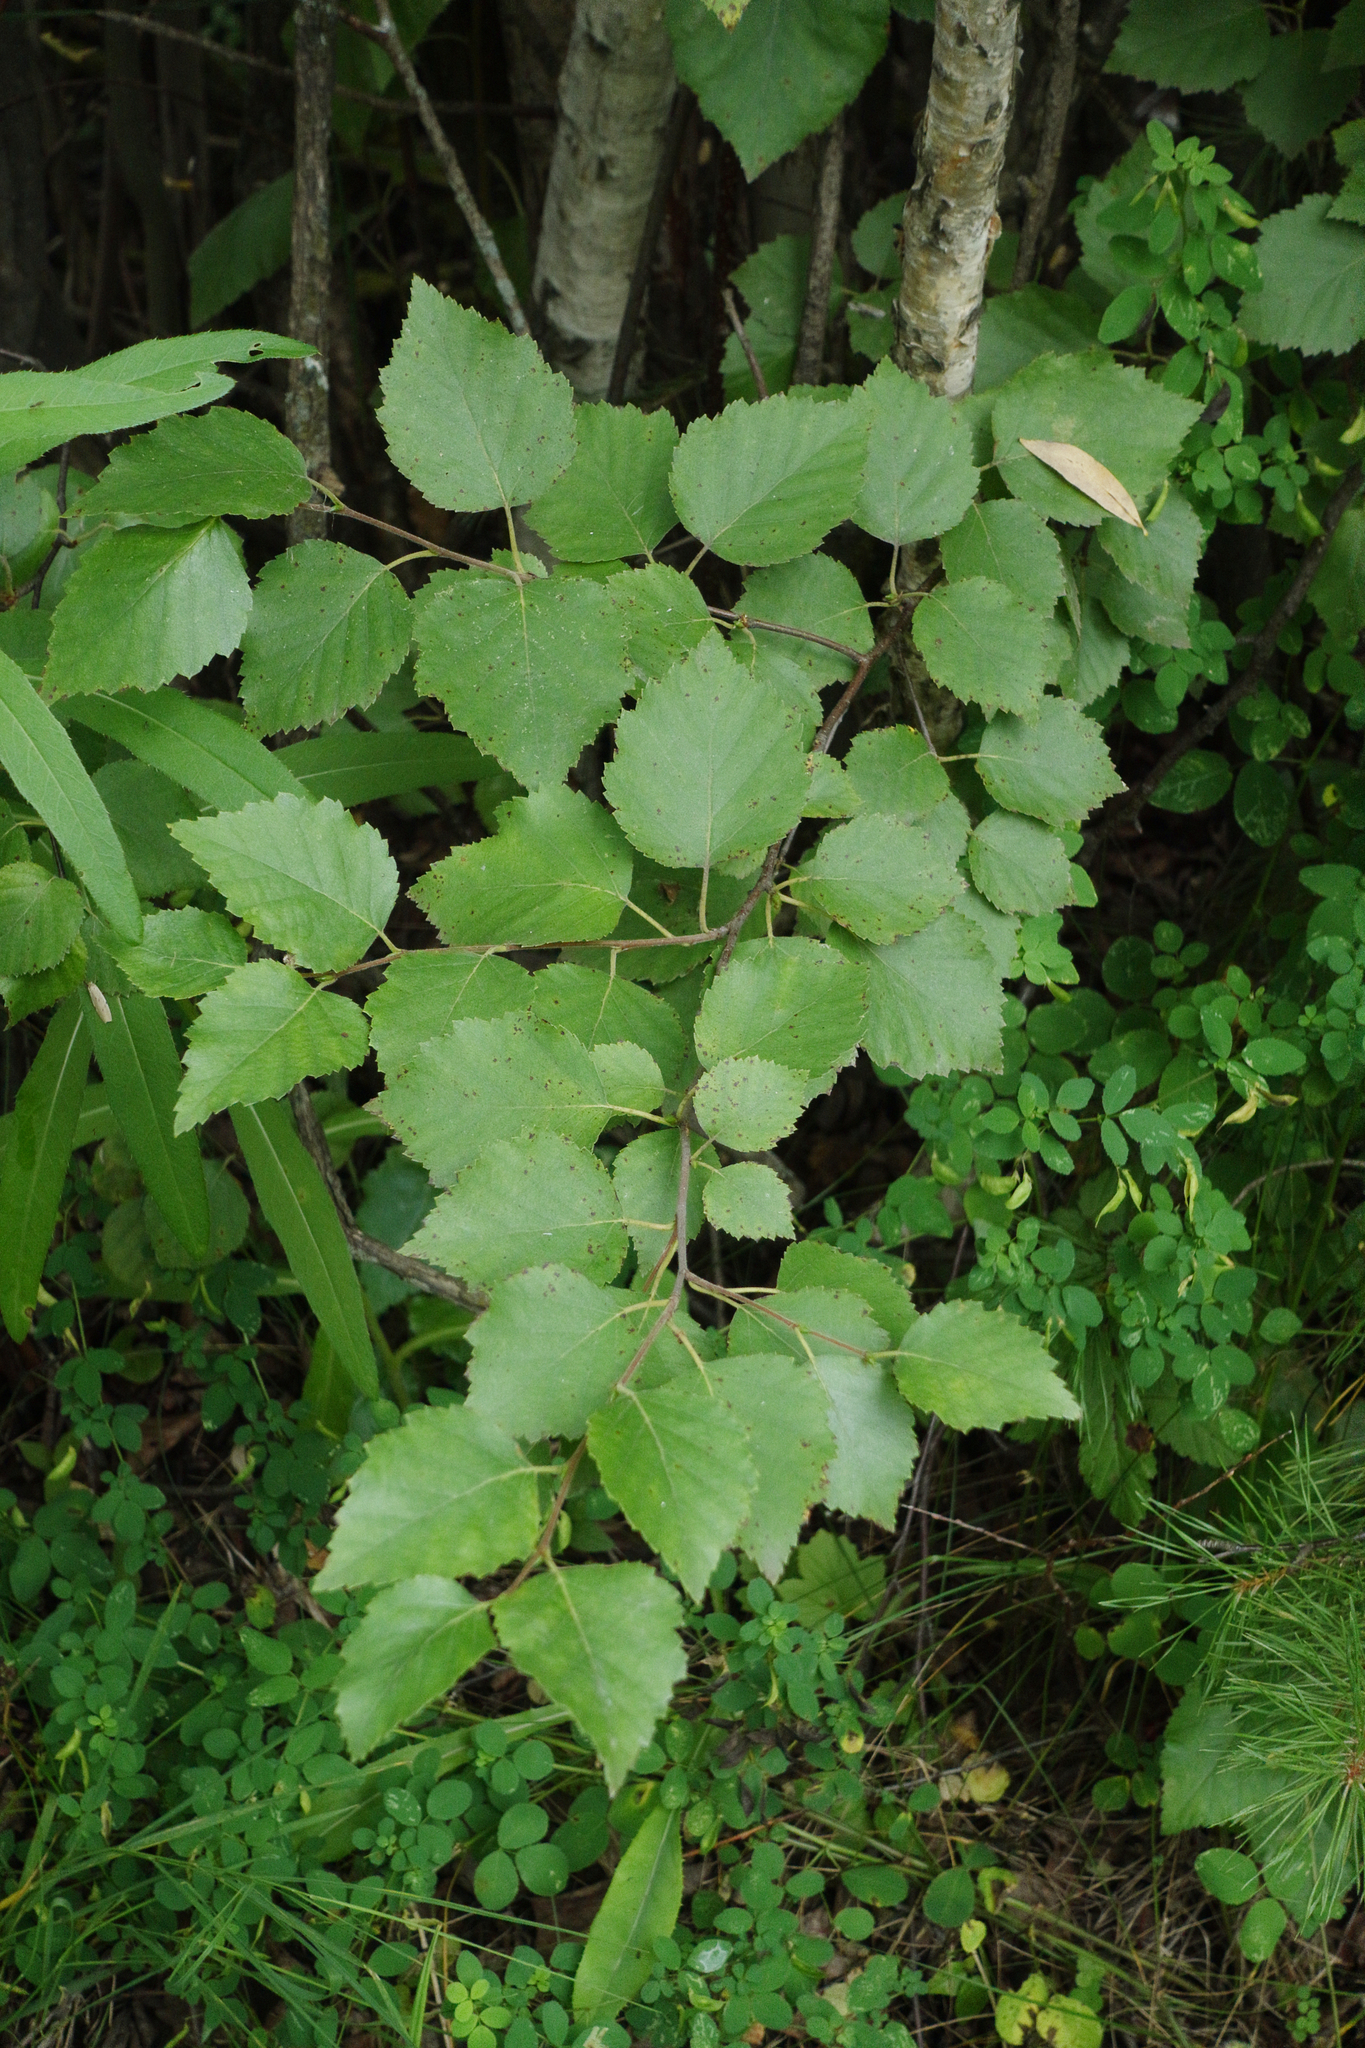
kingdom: Plantae
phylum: Tracheophyta
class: Magnoliopsida
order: Fagales
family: Betulaceae
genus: Betula
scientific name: Betula pubescens
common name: Downy birch
